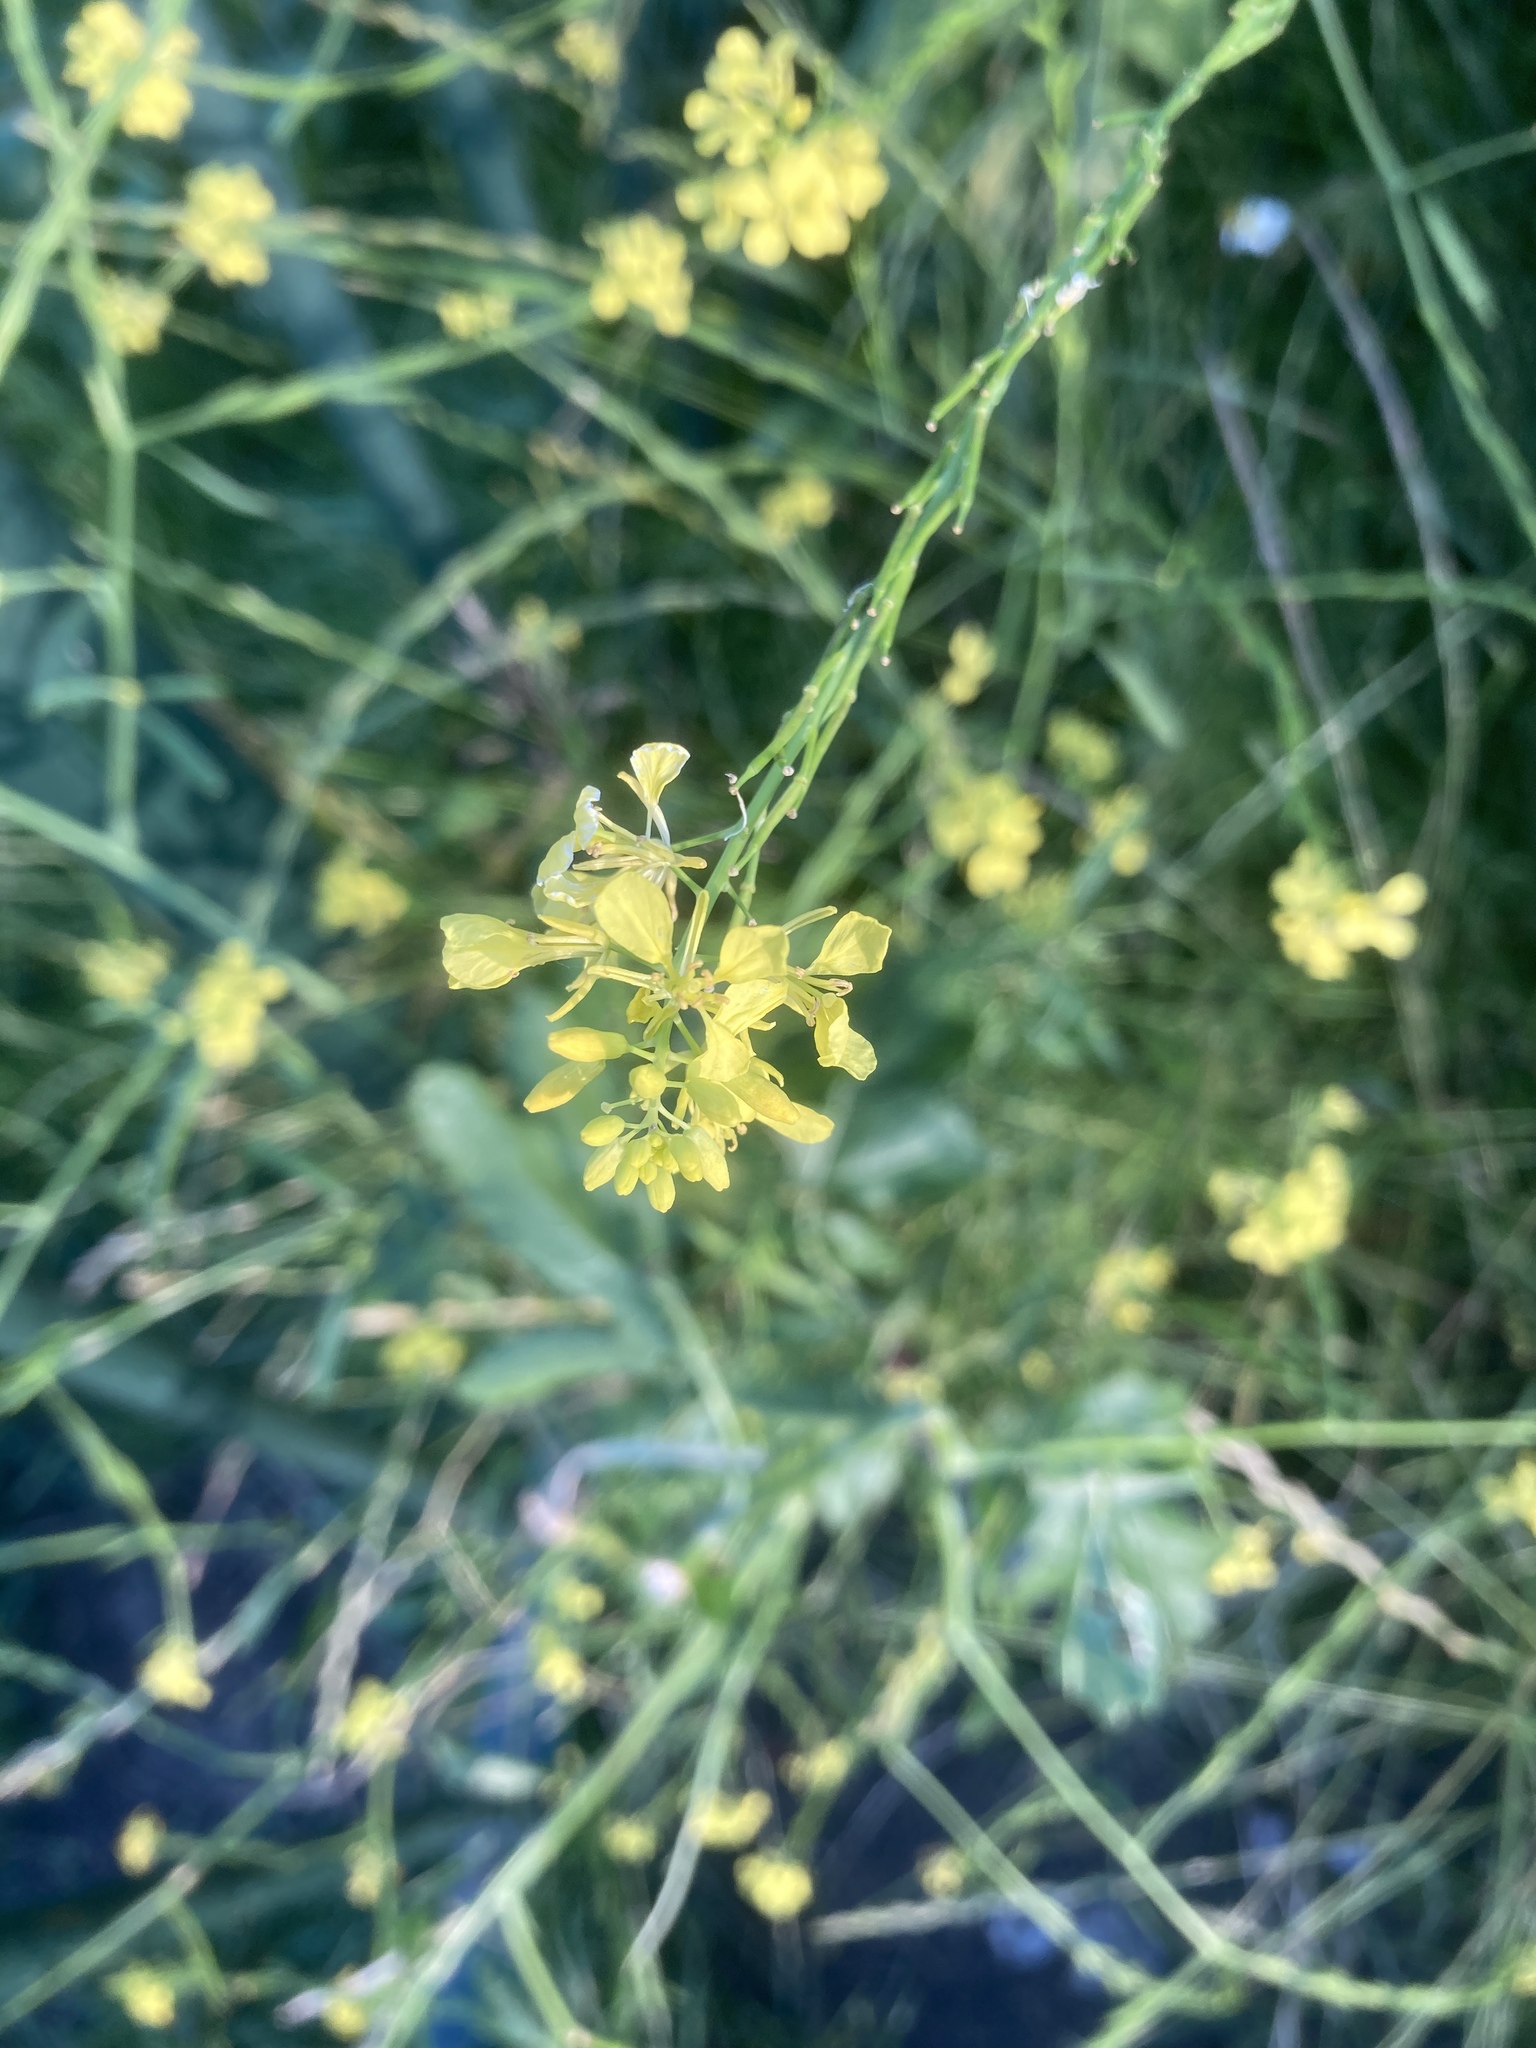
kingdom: Plantae
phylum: Tracheophyta
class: Magnoliopsida
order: Brassicales
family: Brassicaceae
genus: Brassica
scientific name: Brassica nigra
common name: Black mustard
